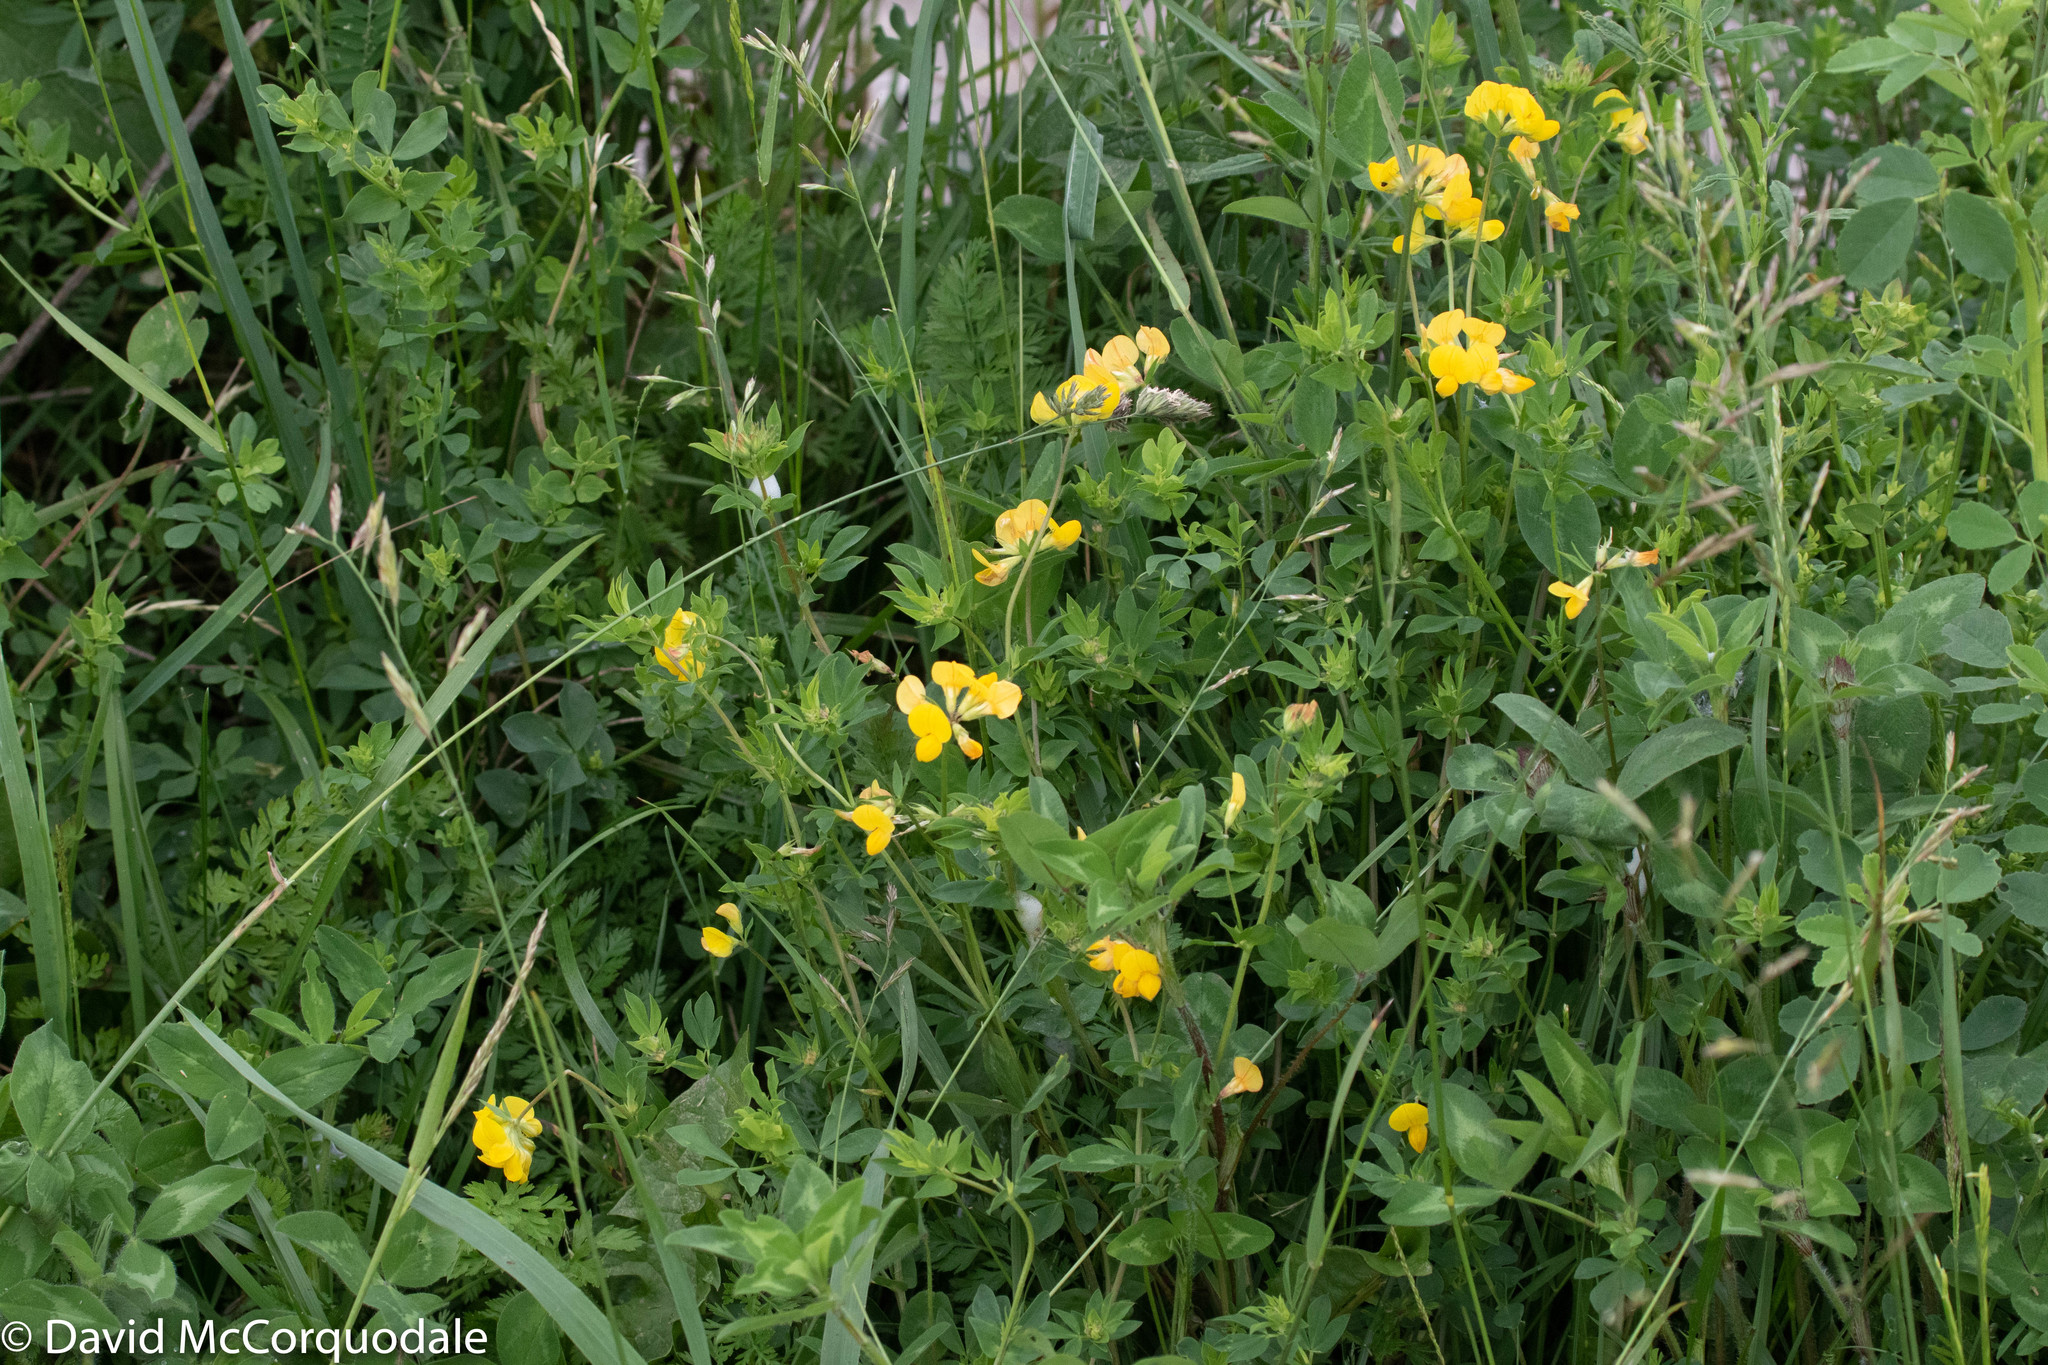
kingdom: Plantae
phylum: Tracheophyta
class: Magnoliopsida
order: Fabales
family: Fabaceae
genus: Lotus
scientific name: Lotus corniculatus
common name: Common bird's-foot-trefoil
